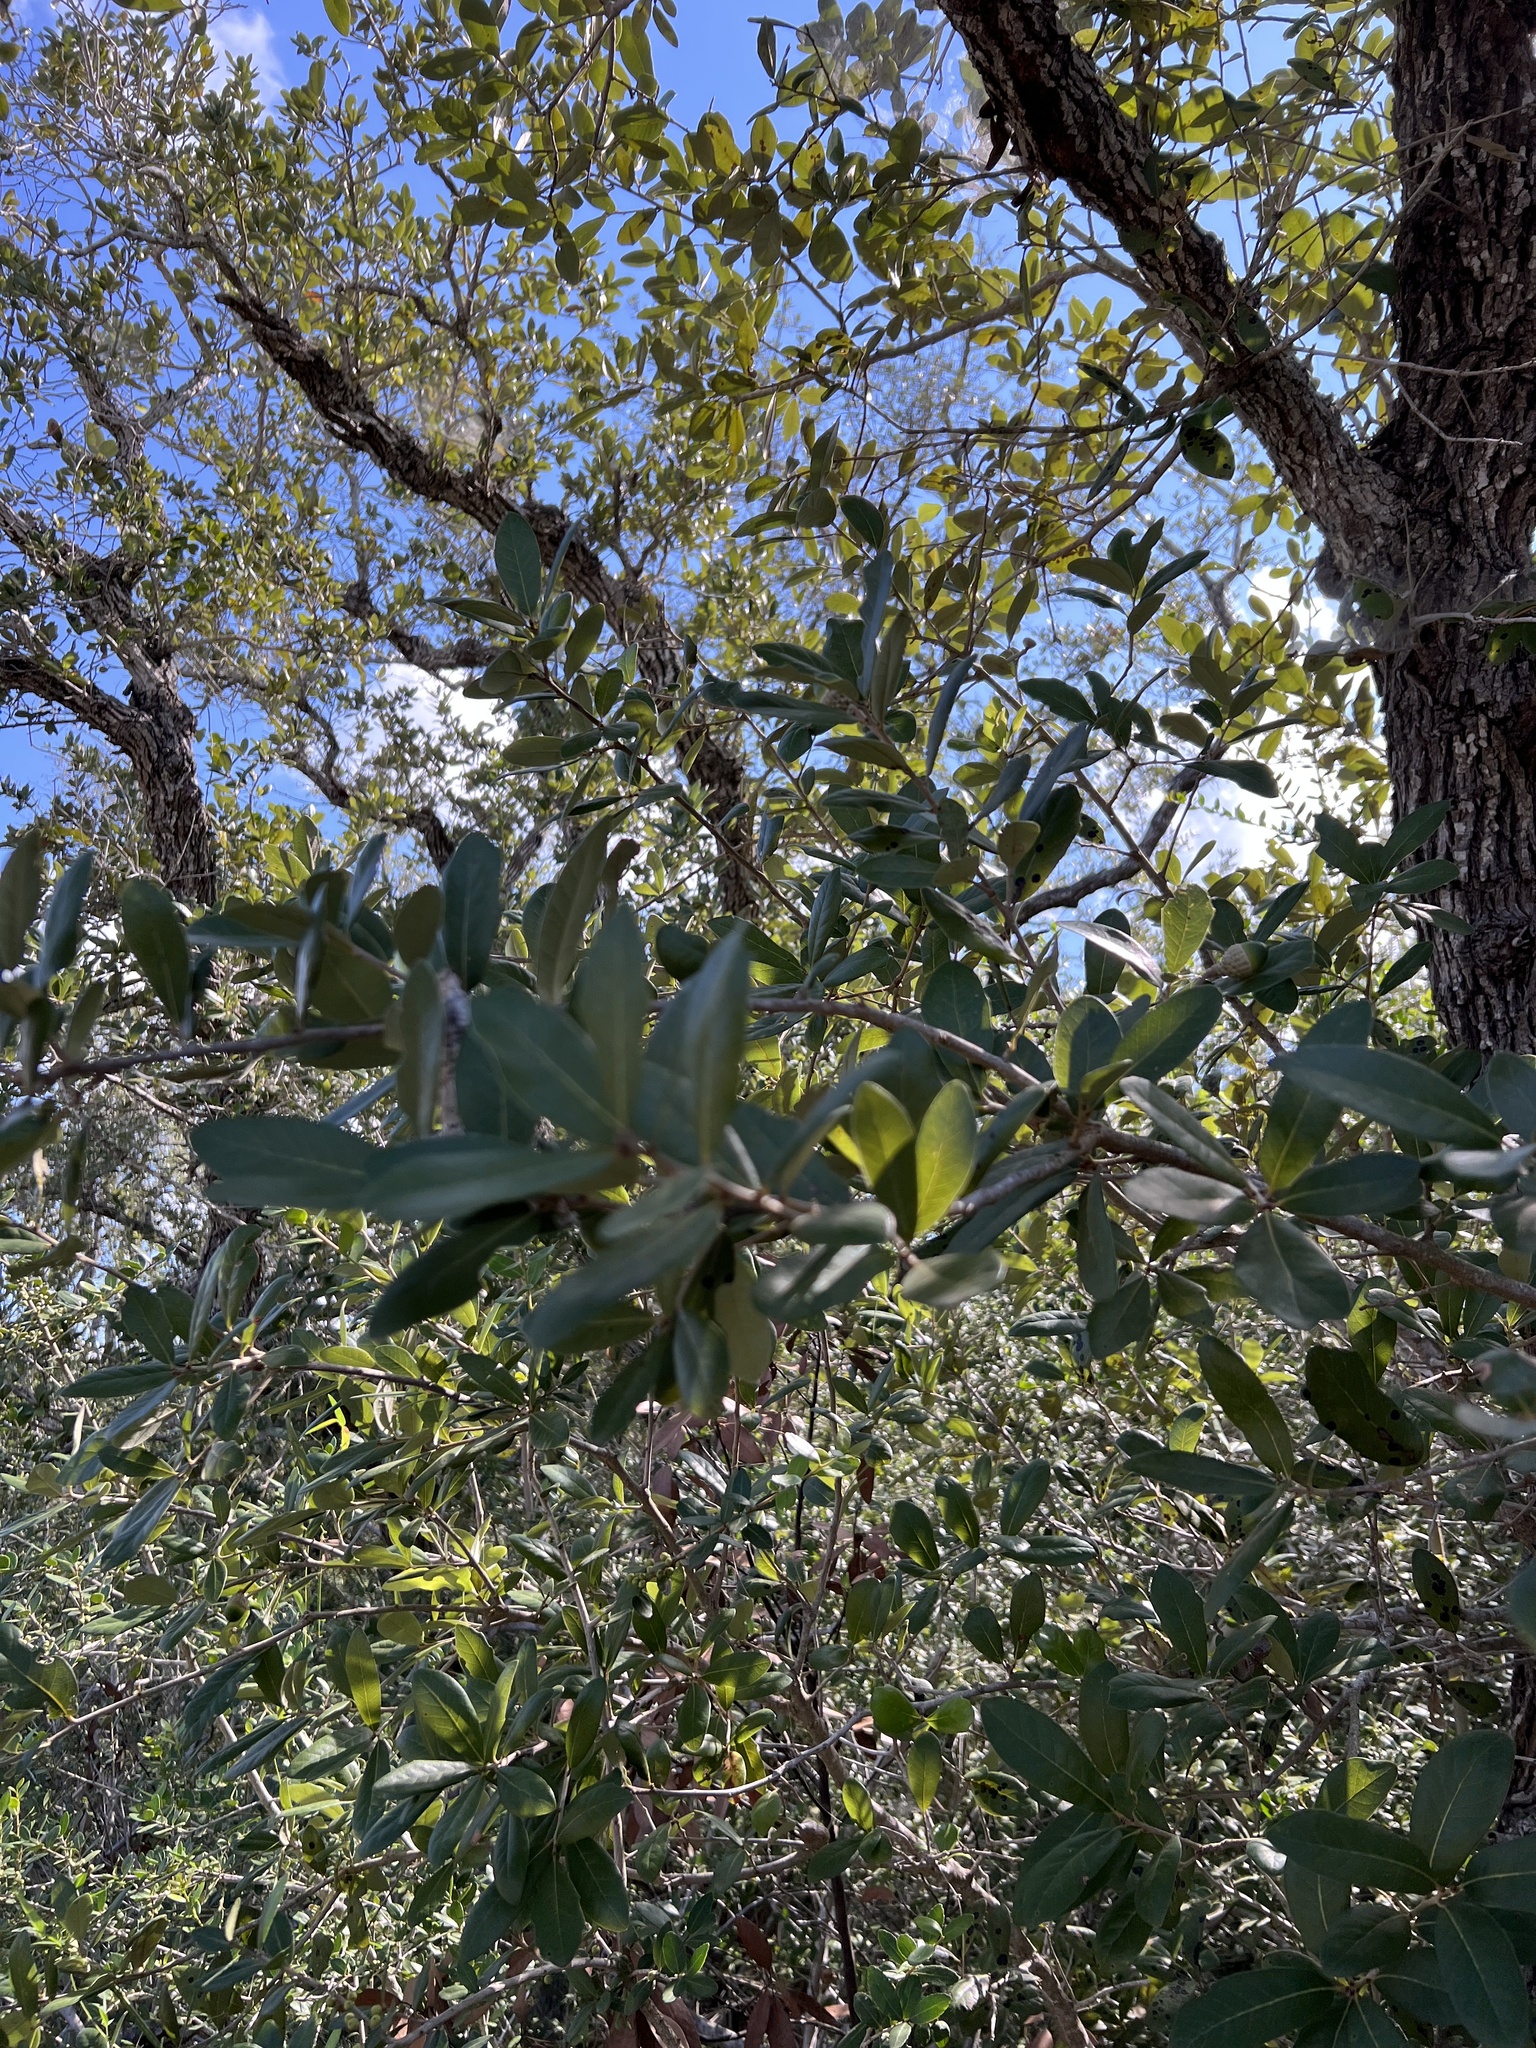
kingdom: Plantae
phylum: Tracheophyta
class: Magnoliopsida
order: Fagales
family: Fagaceae
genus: Quercus
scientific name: Quercus virginiana
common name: Southern live oak
